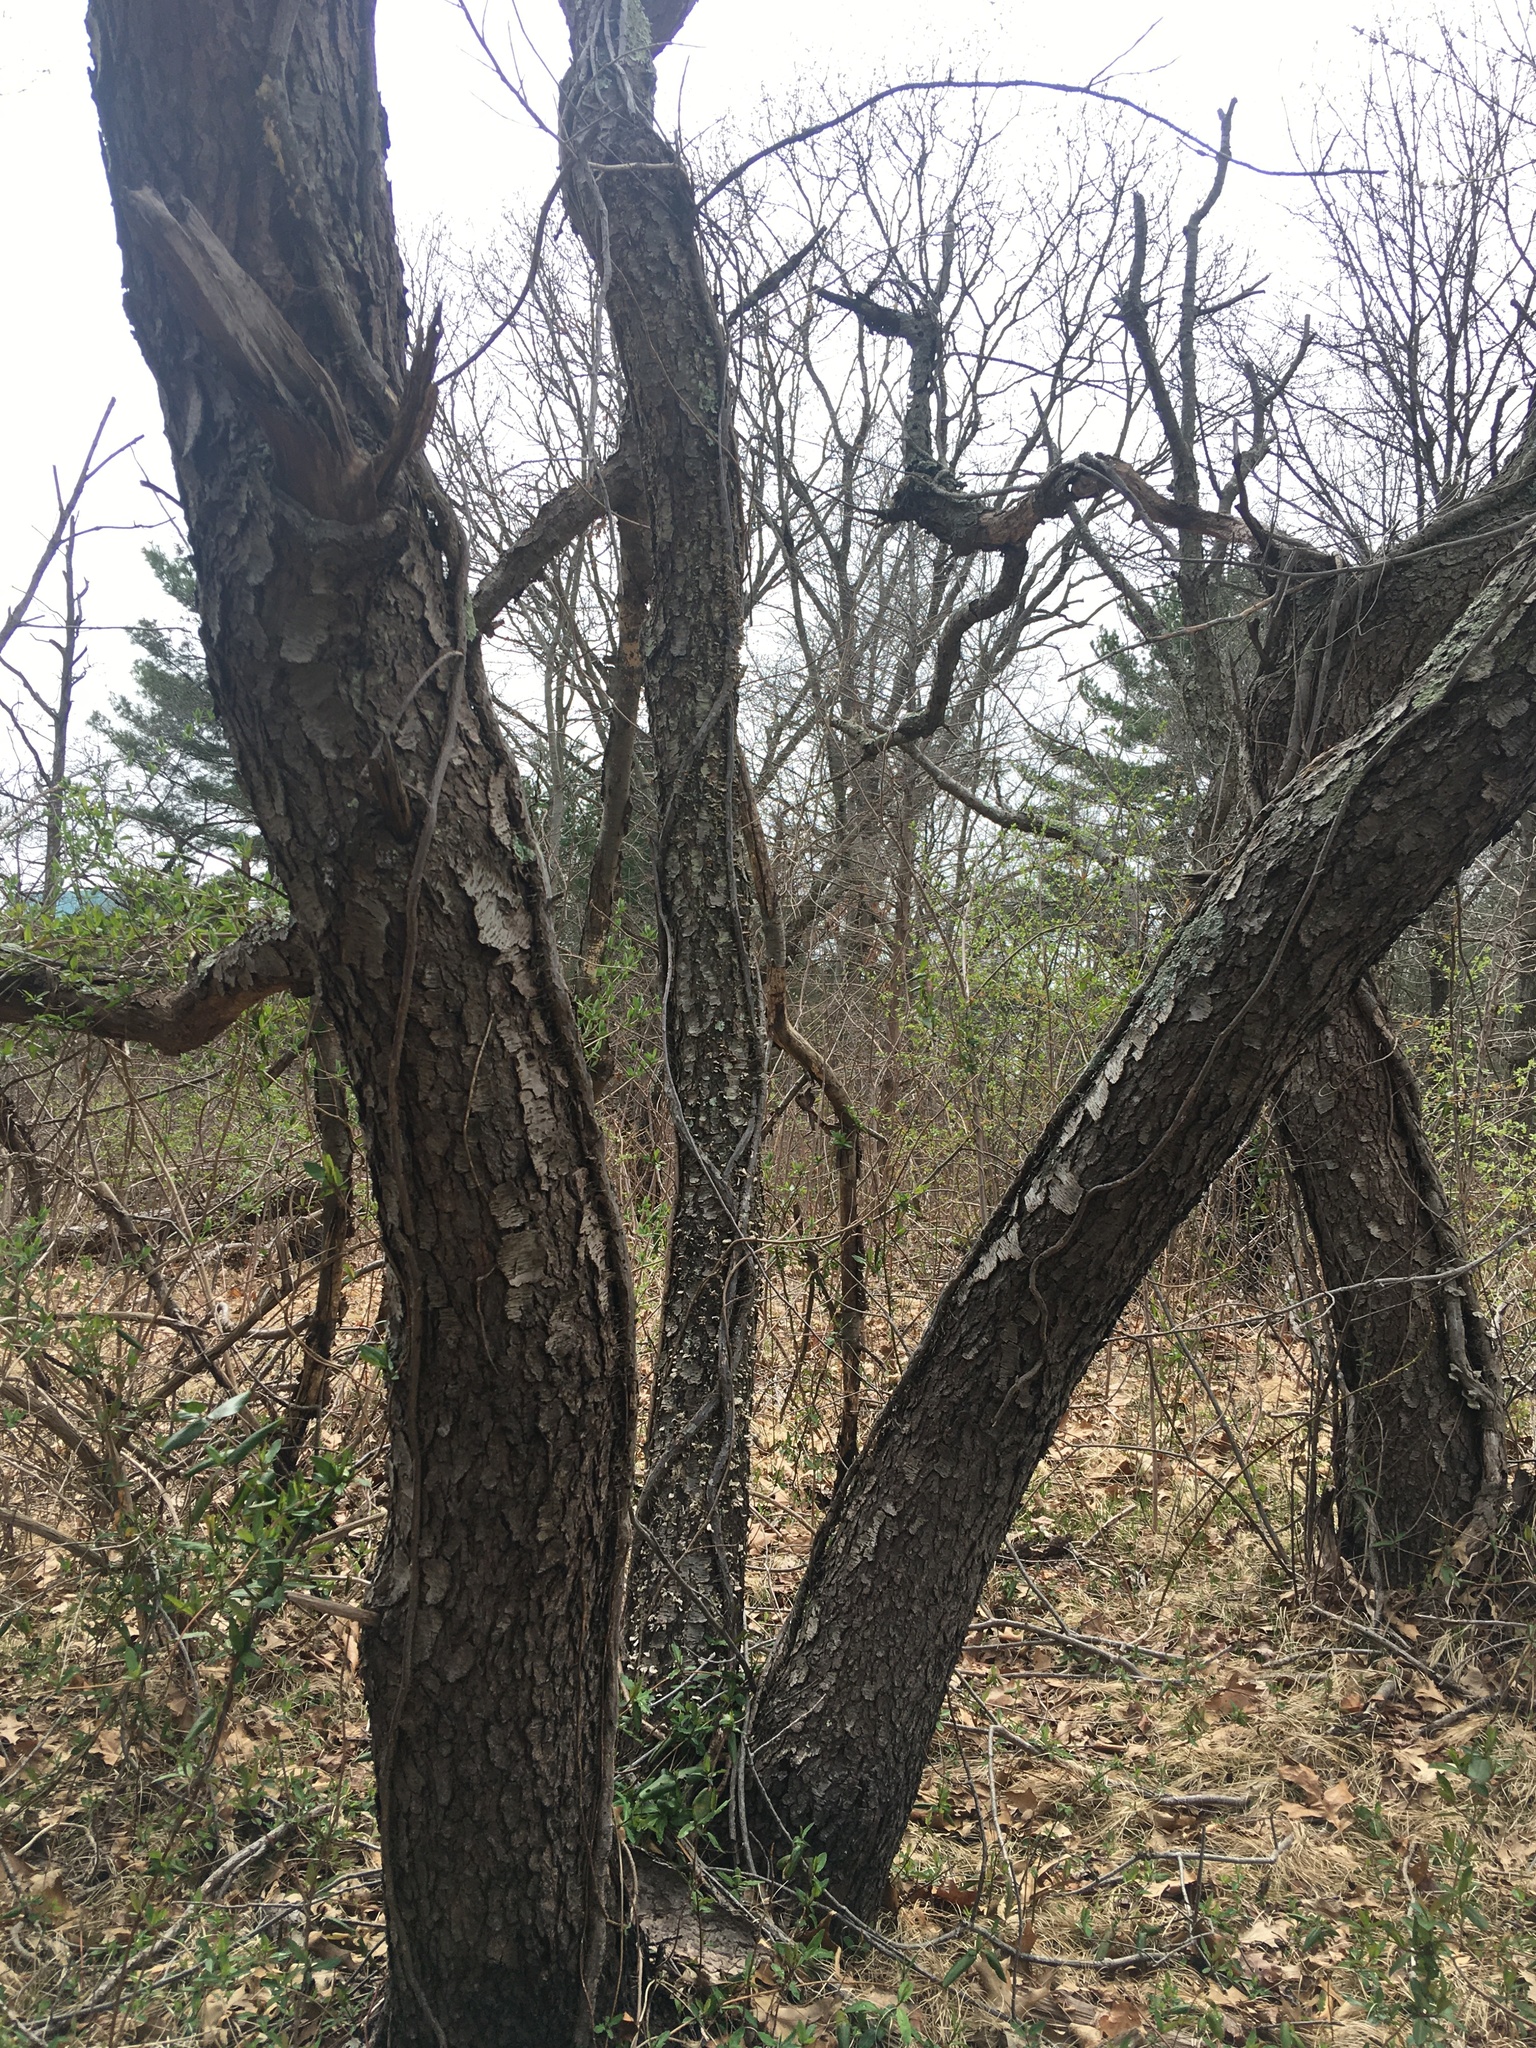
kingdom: Plantae
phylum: Tracheophyta
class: Magnoliopsida
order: Rosales
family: Rosaceae
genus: Prunus
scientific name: Prunus serotina
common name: Black cherry
